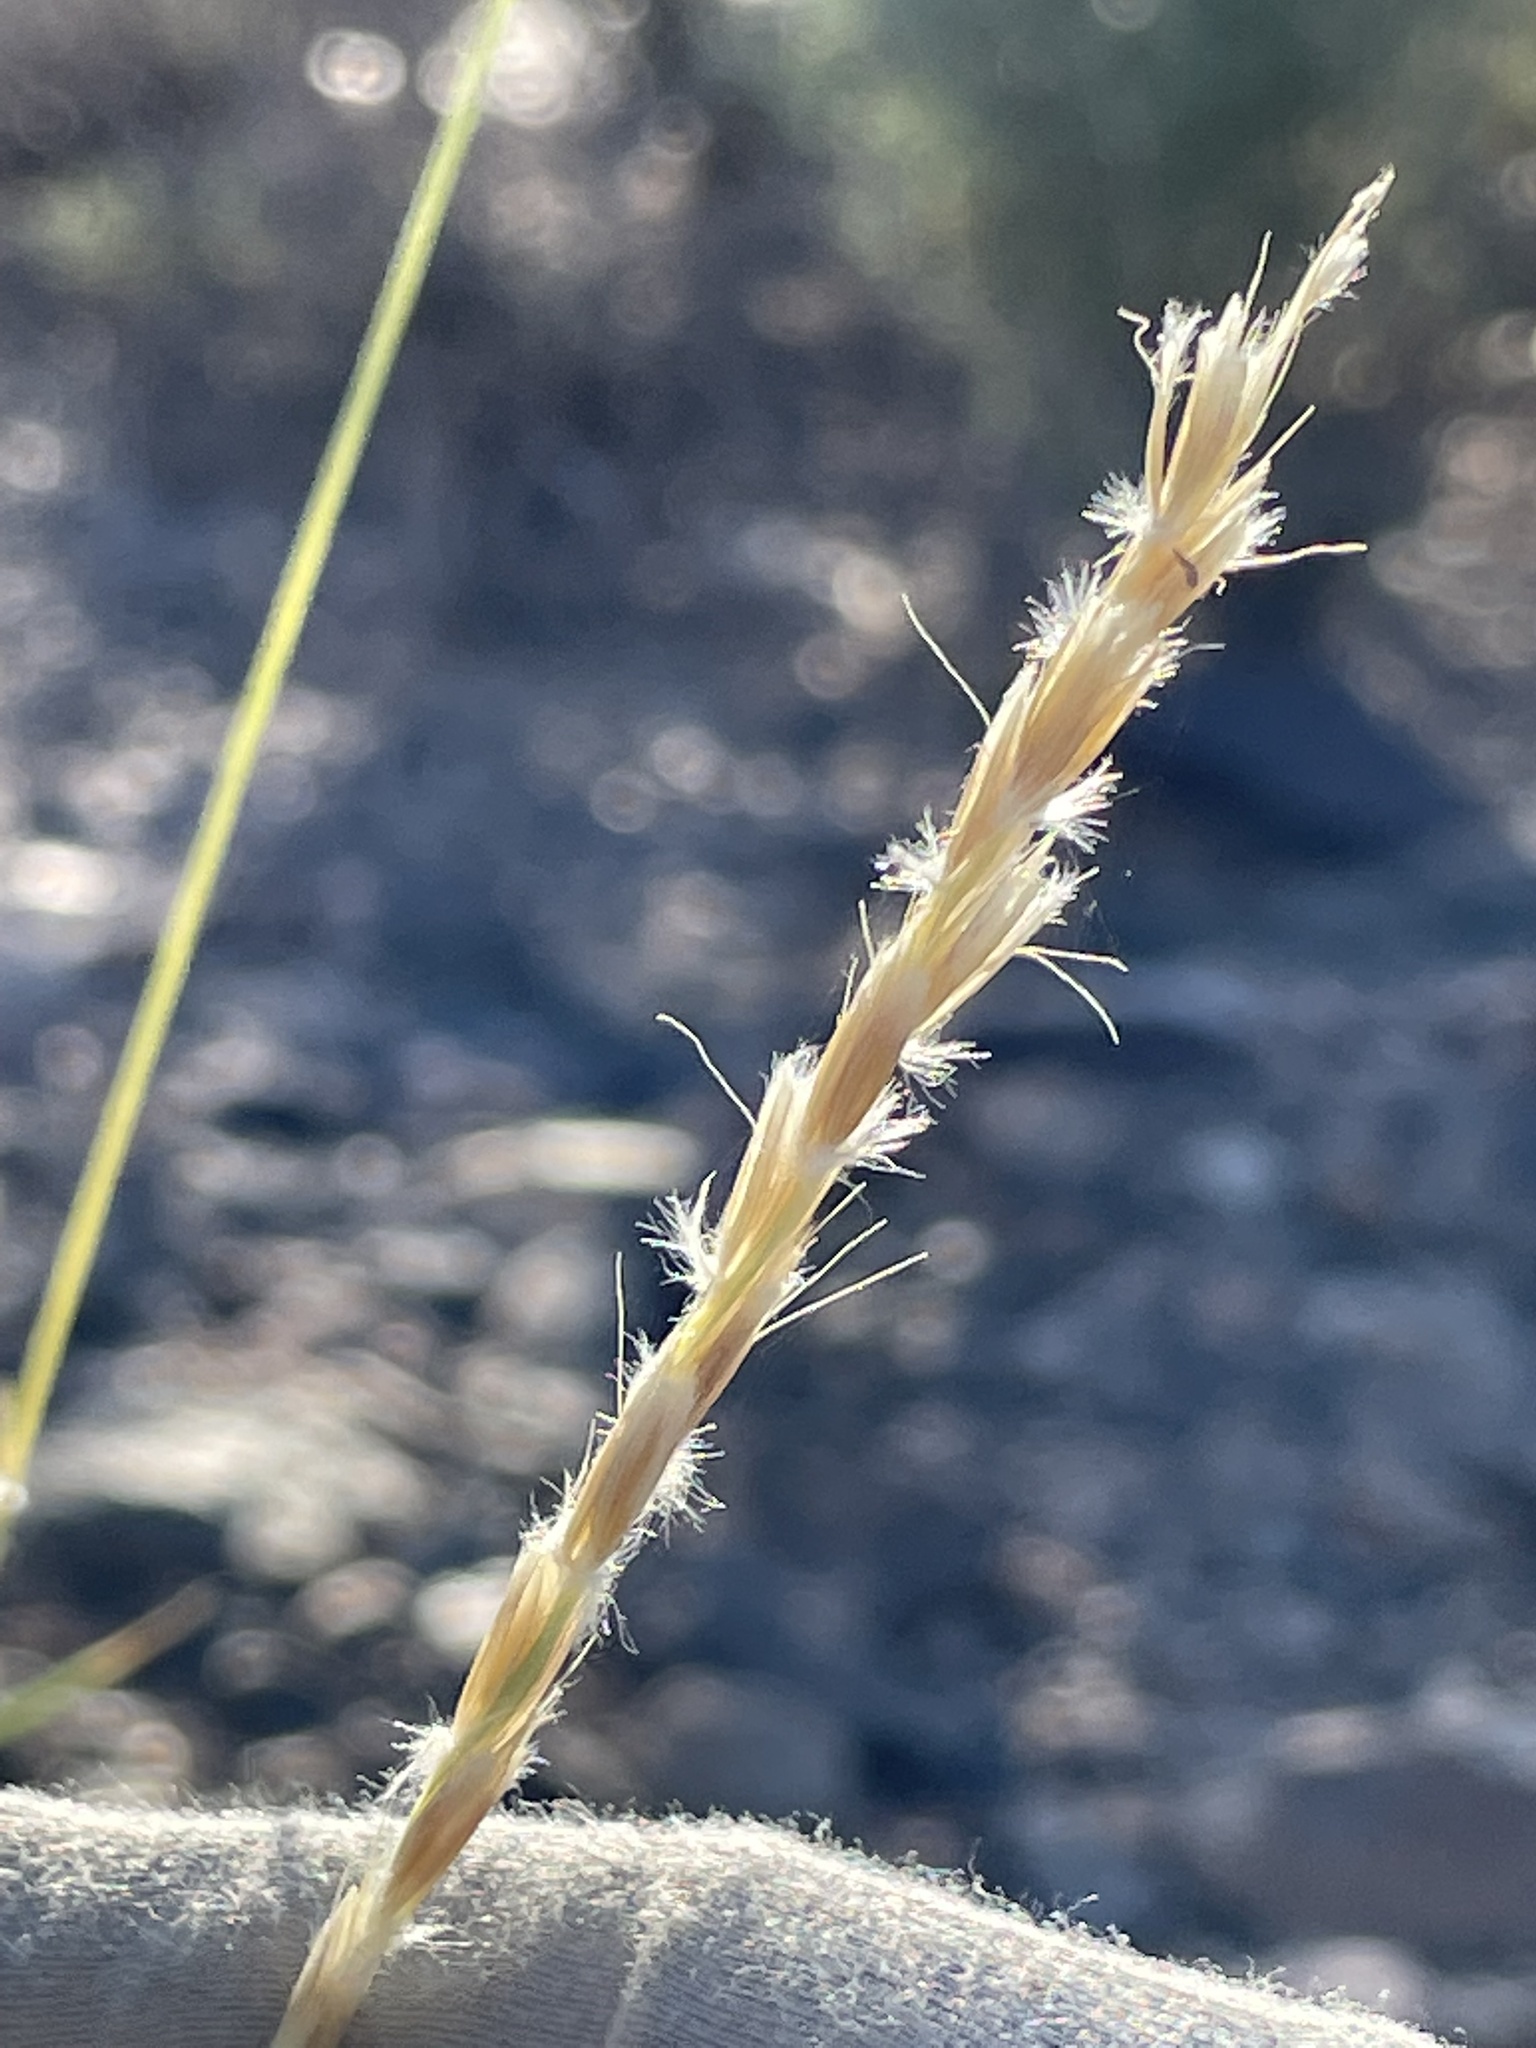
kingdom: Plantae
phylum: Tracheophyta
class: Liliopsida
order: Poales
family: Poaceae
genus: Hilaria
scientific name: Hilaria rigida
